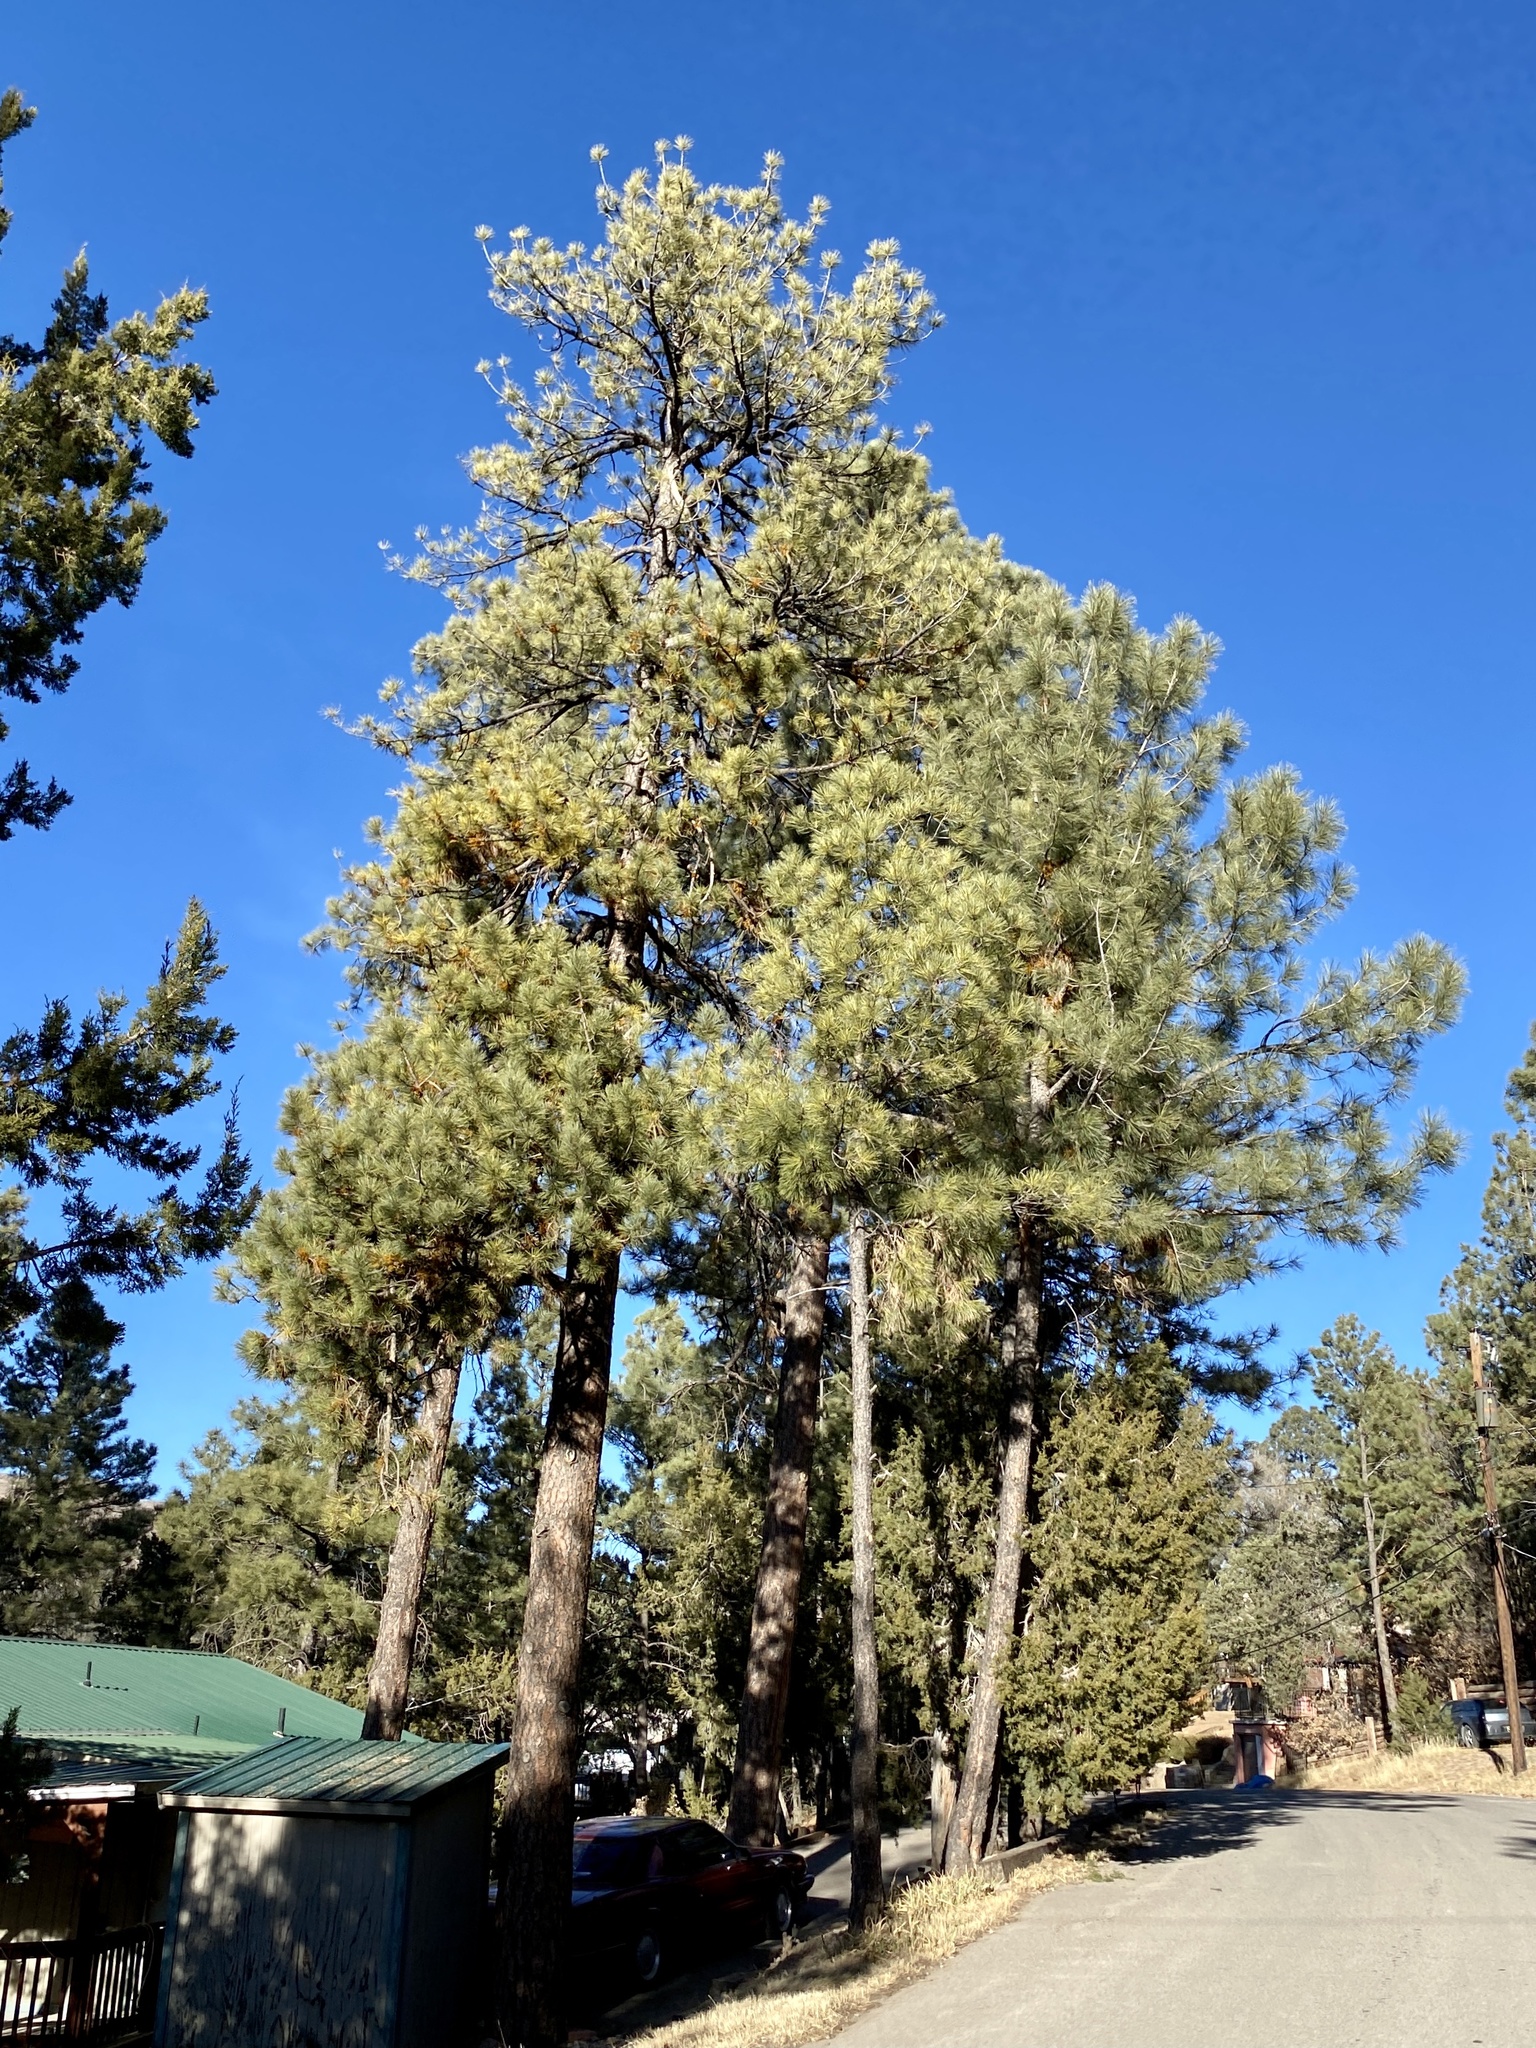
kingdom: Plantae
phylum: Tracheophyta
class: Pinopsida
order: Pinales
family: Pinaceae
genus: Pinus
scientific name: Pinus ponderosa
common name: Western yellow-pine
